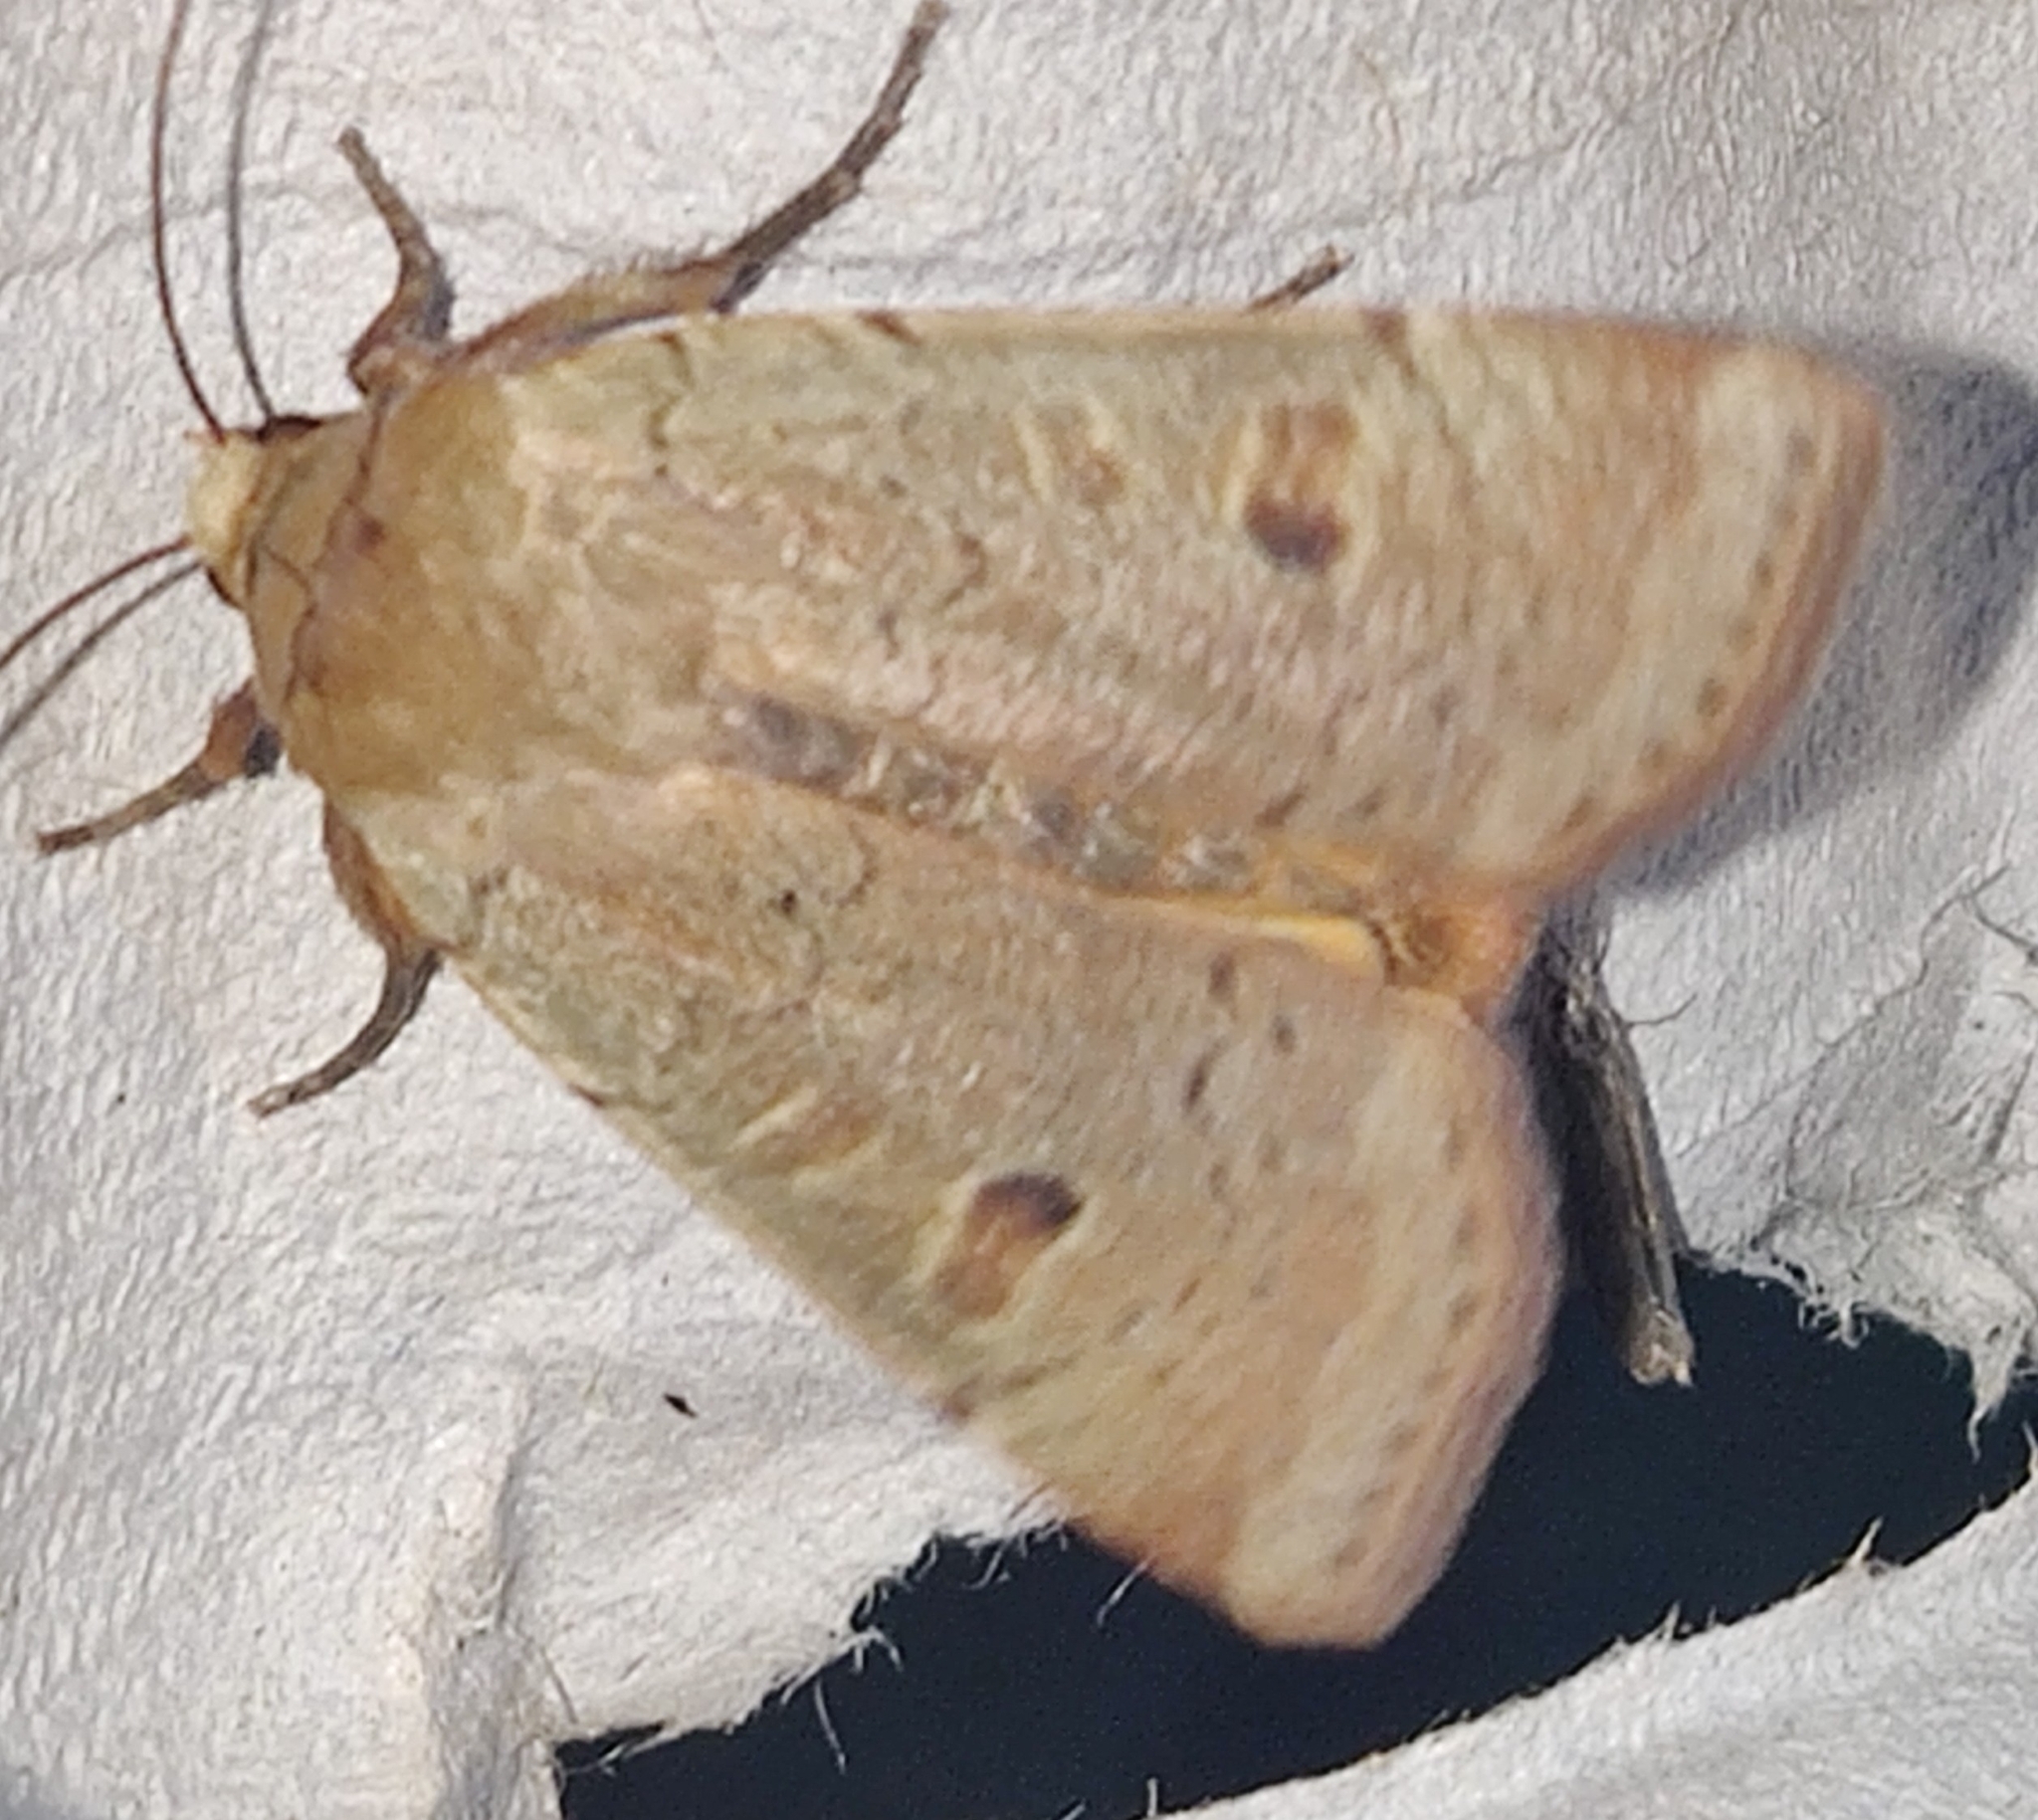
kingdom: Animalia
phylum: Arthropoda
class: Insecta
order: Lepidoptera
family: Noctuidae
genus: Noctua
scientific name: Noctua comes
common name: Lesser yellow underwing
